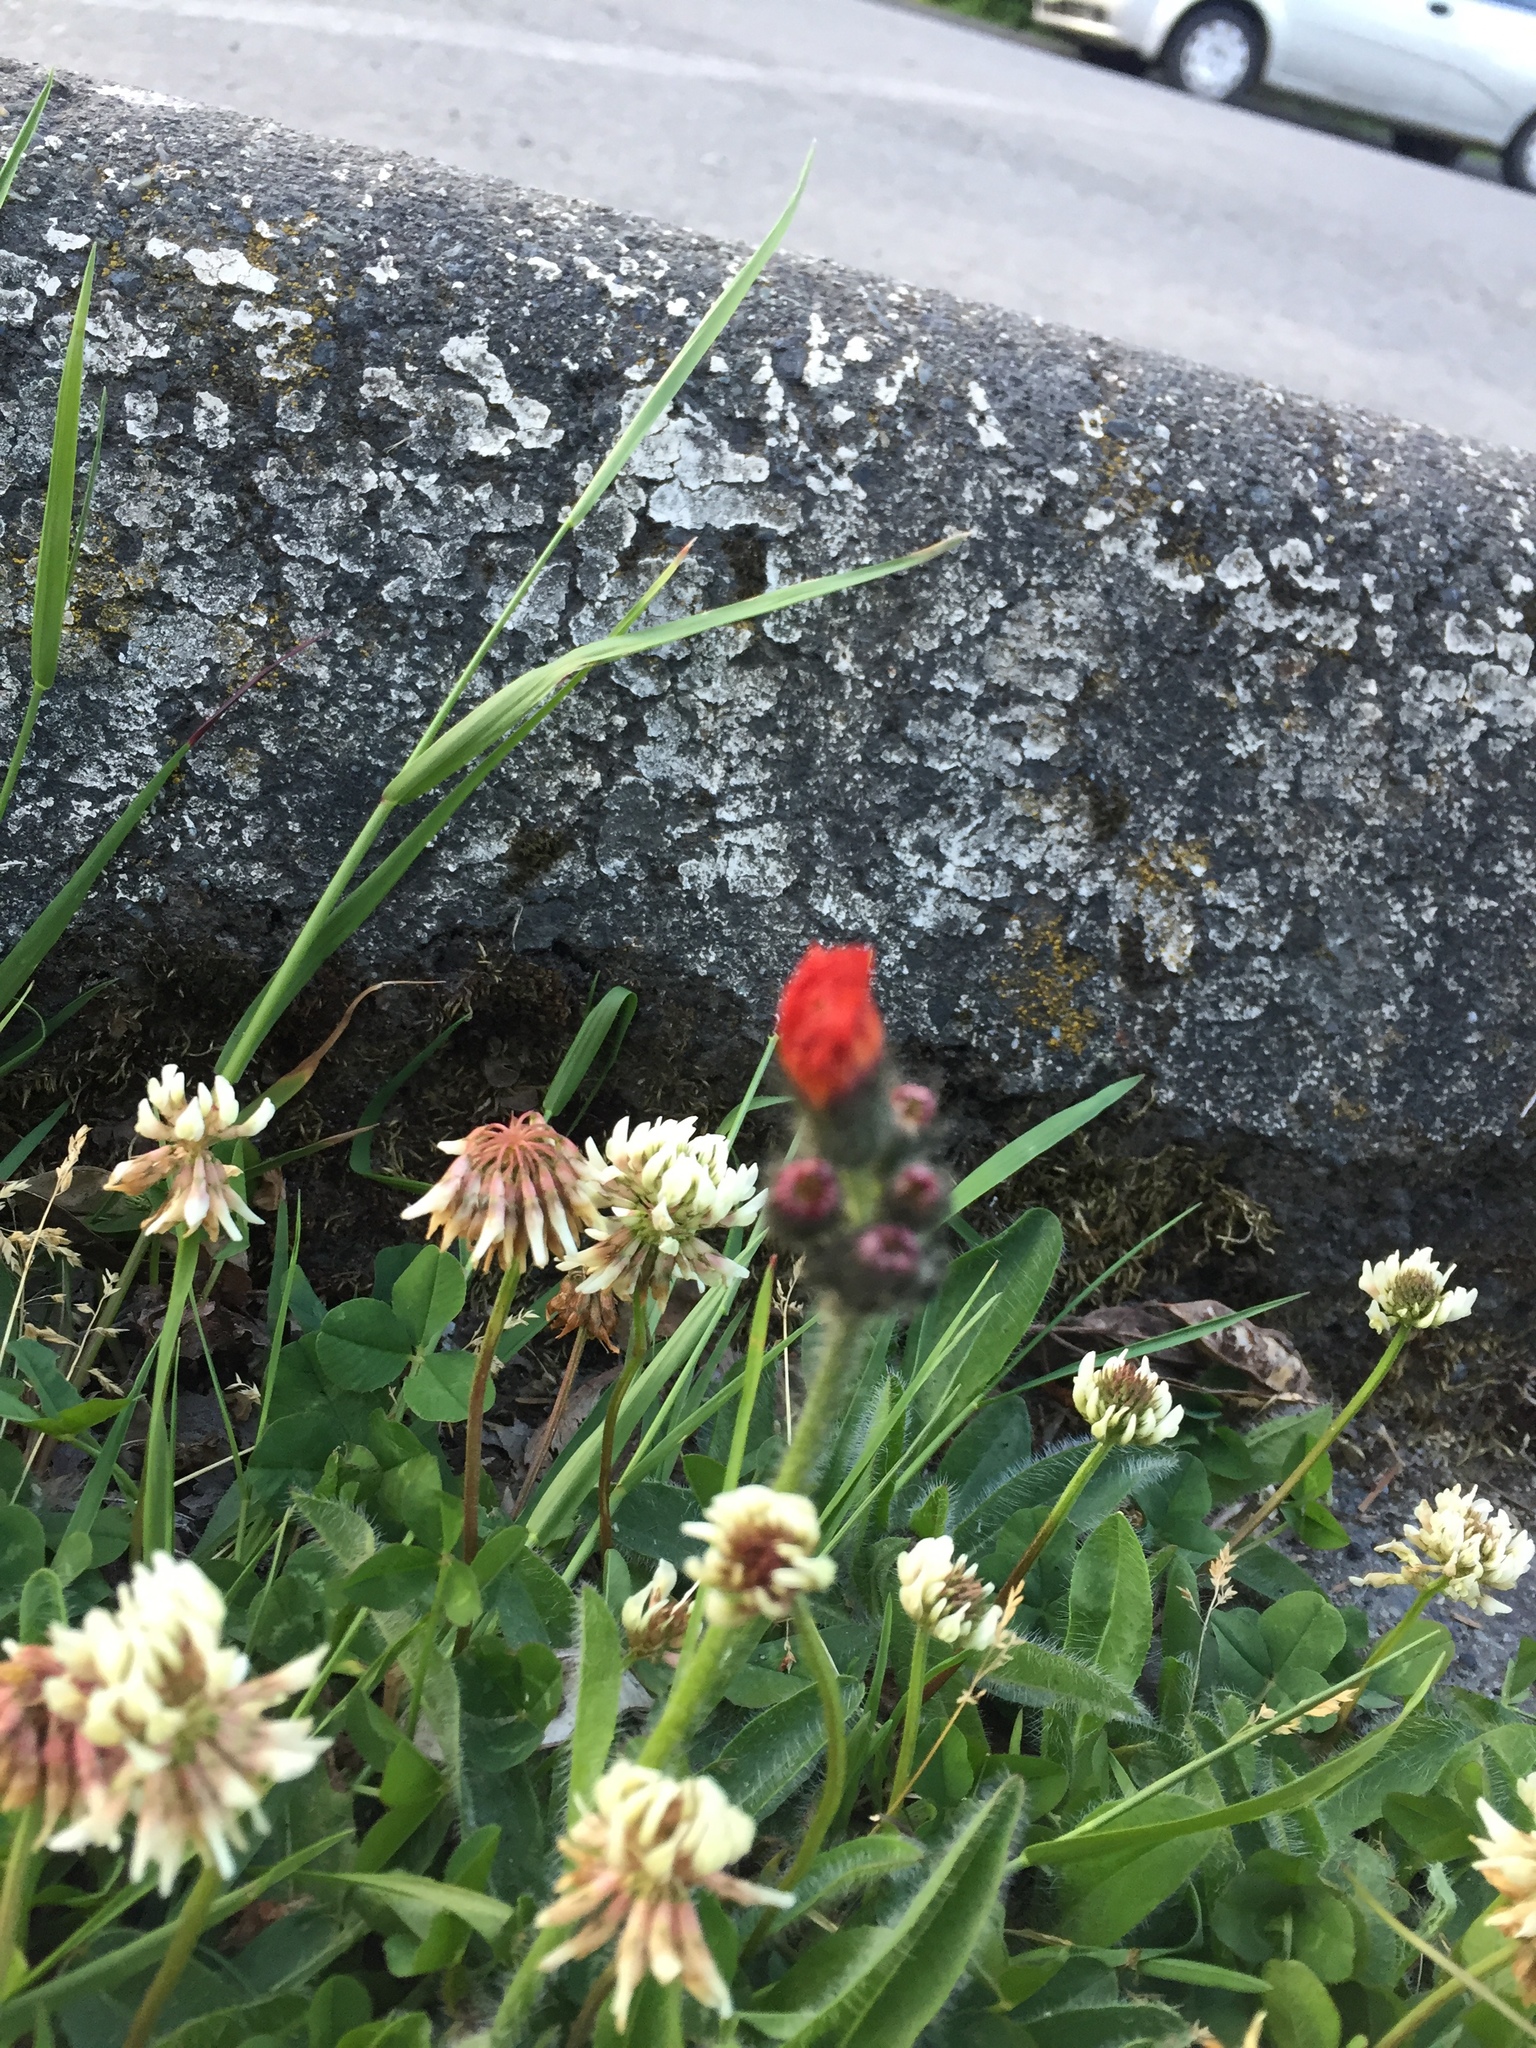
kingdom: Plantae
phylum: Tracheophyta
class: Magnoliopsida
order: Asterales
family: Asteraceae
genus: Pilosella
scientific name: Pilosella aurantiaca
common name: Fox-and-cubs
